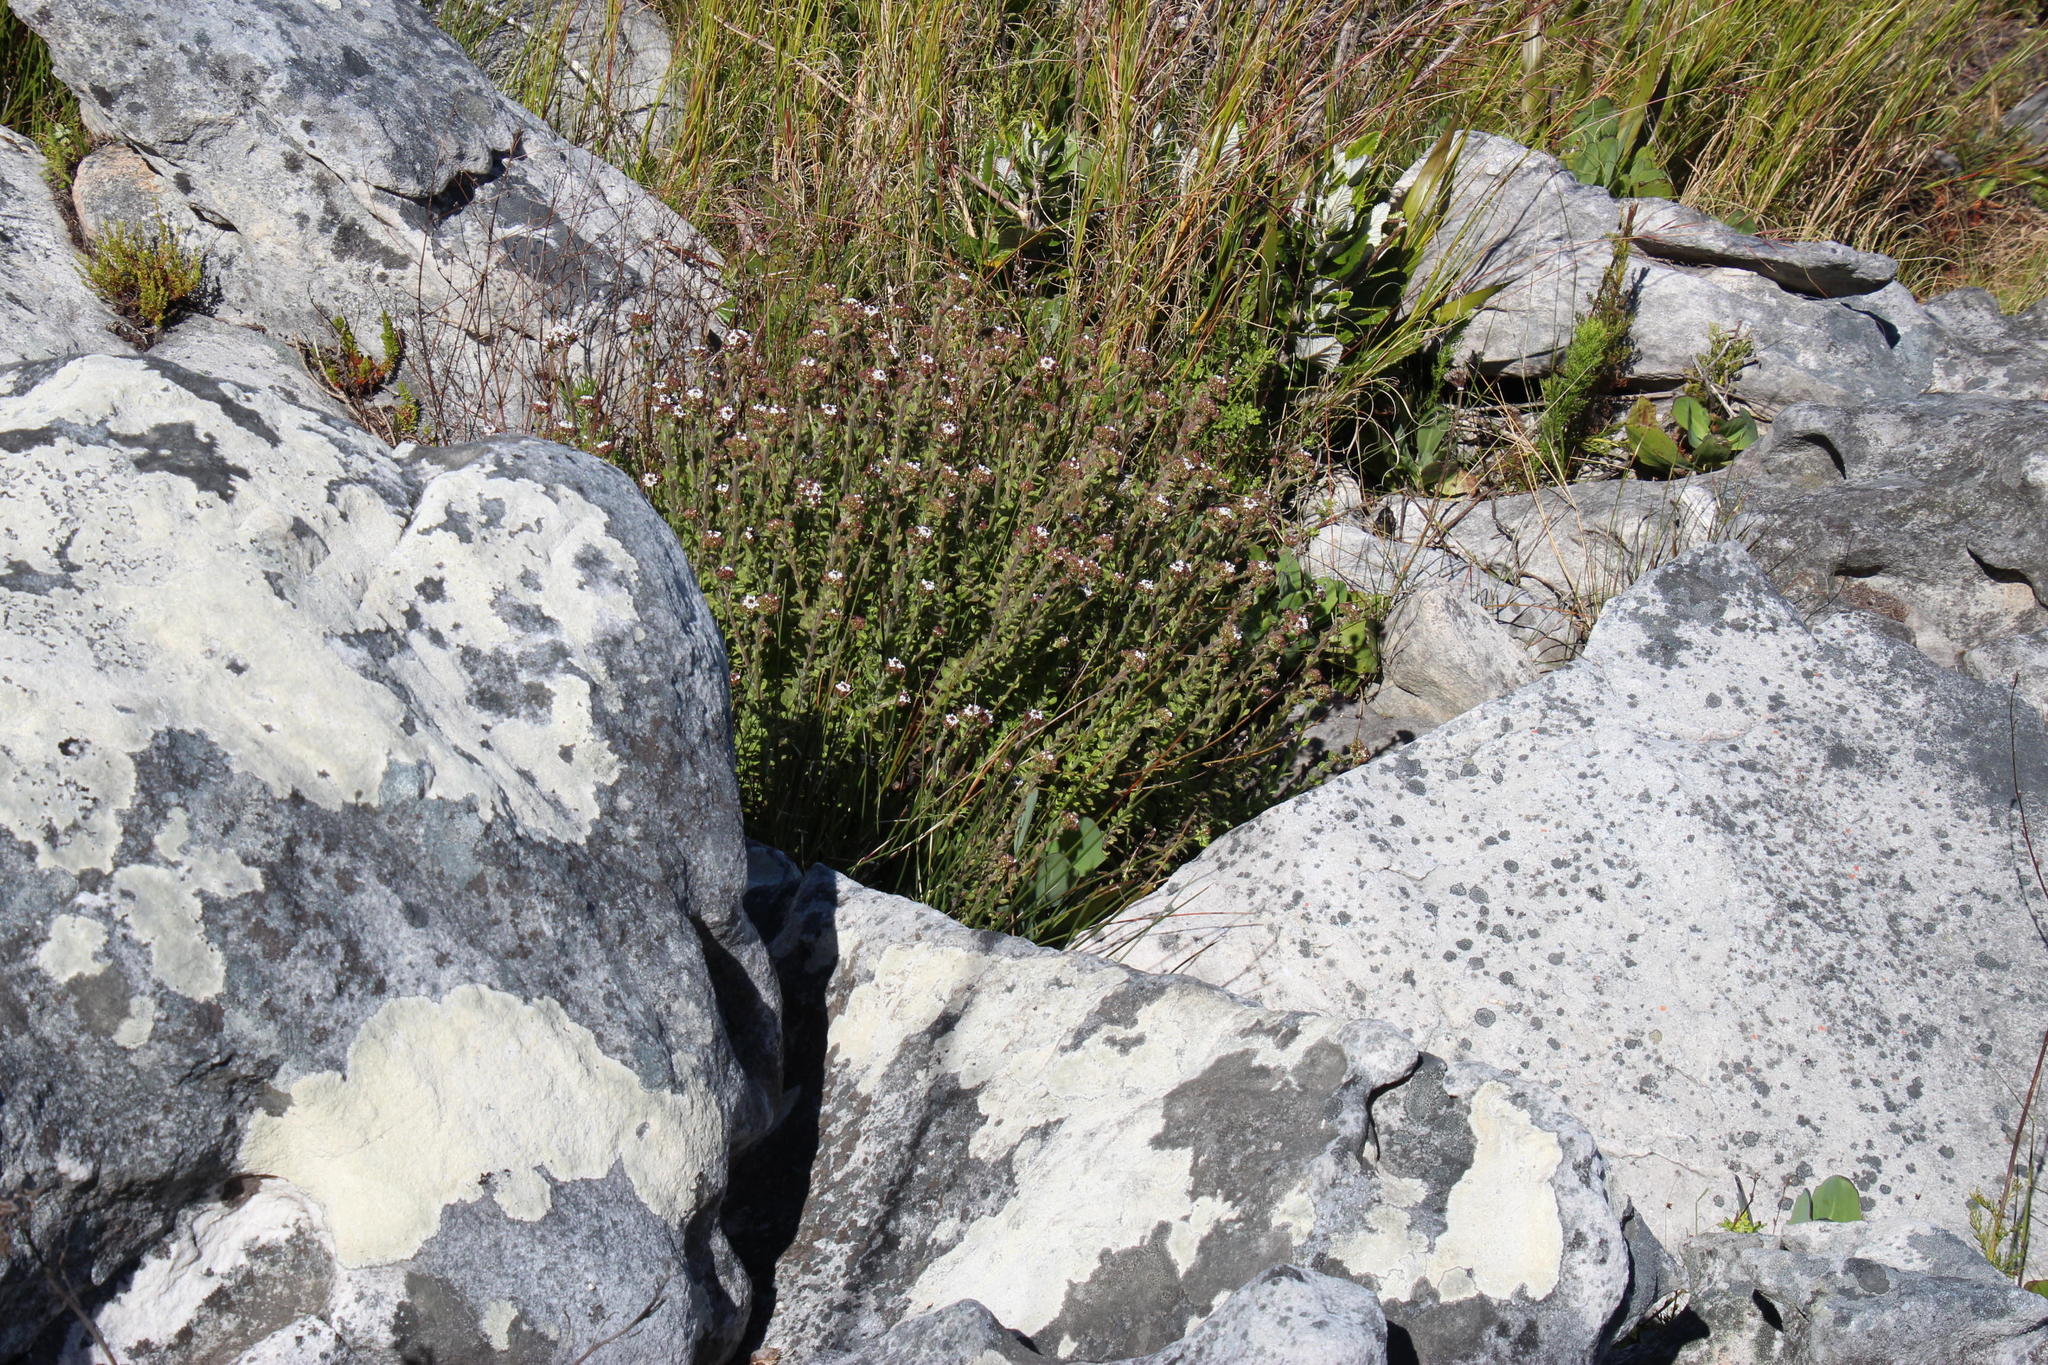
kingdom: Plantae
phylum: Tracheophyta
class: Magnoliopsida
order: Lamiales
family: Scrophulariaceae
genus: Pseudoselago
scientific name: Pseudoselago peninsulae
